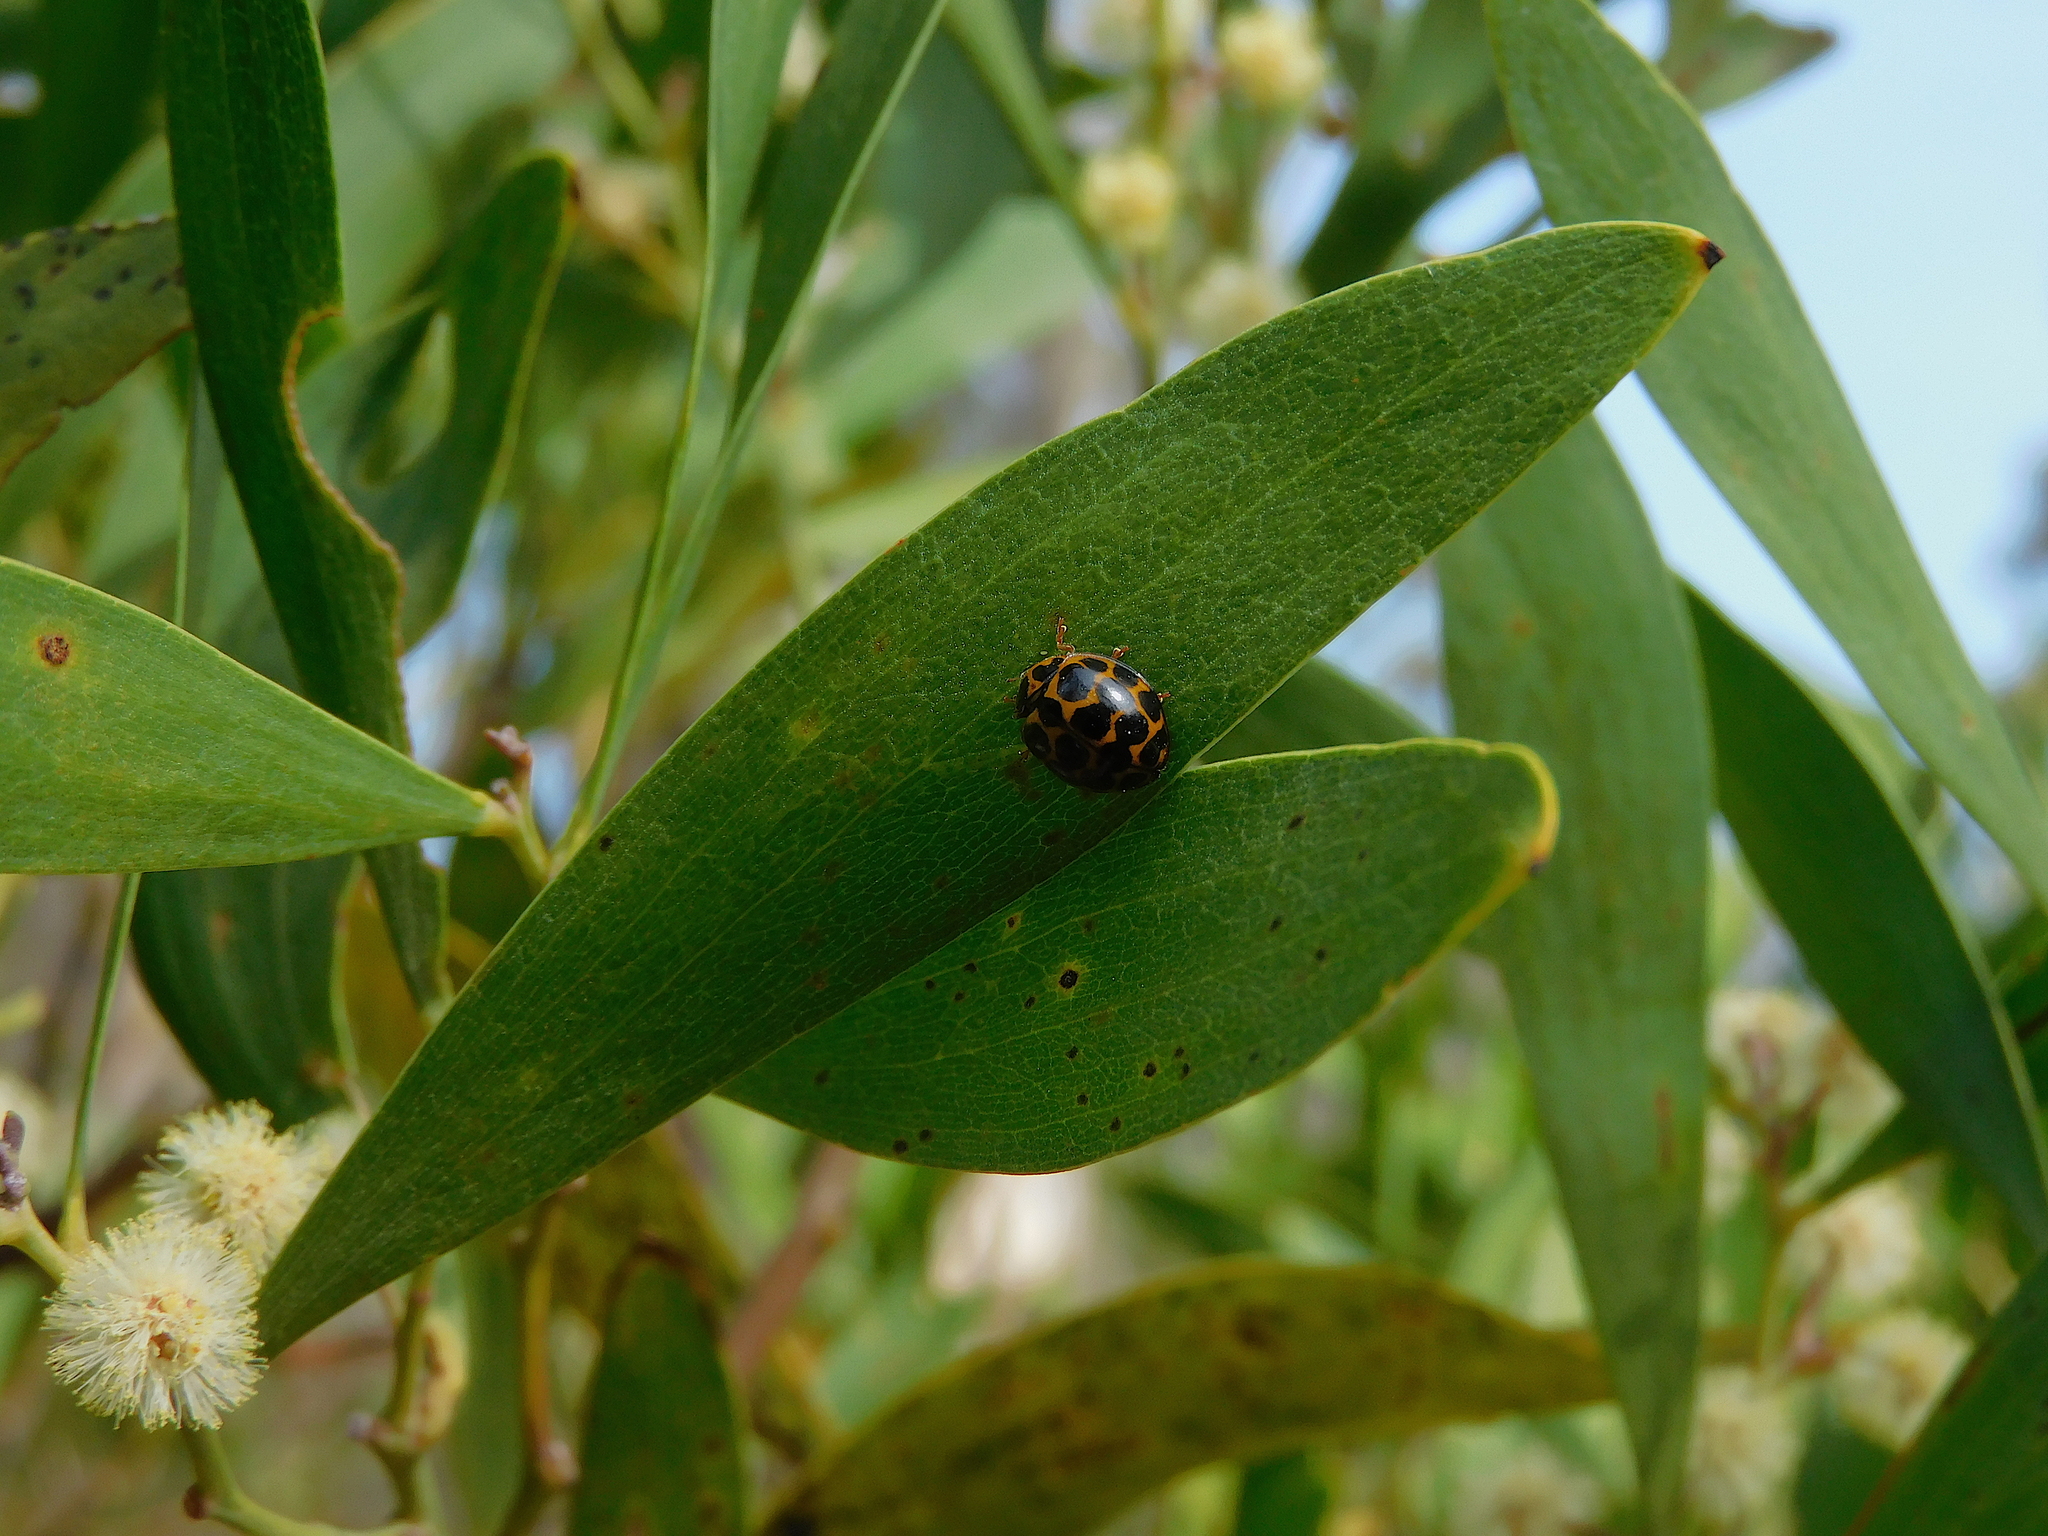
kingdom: Animalia
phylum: Arthropoda
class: Insecta
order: Coleoptera
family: Coccinellidae
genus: Harmonia
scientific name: Harmonia conformis
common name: Common spotted ladybird beetle
